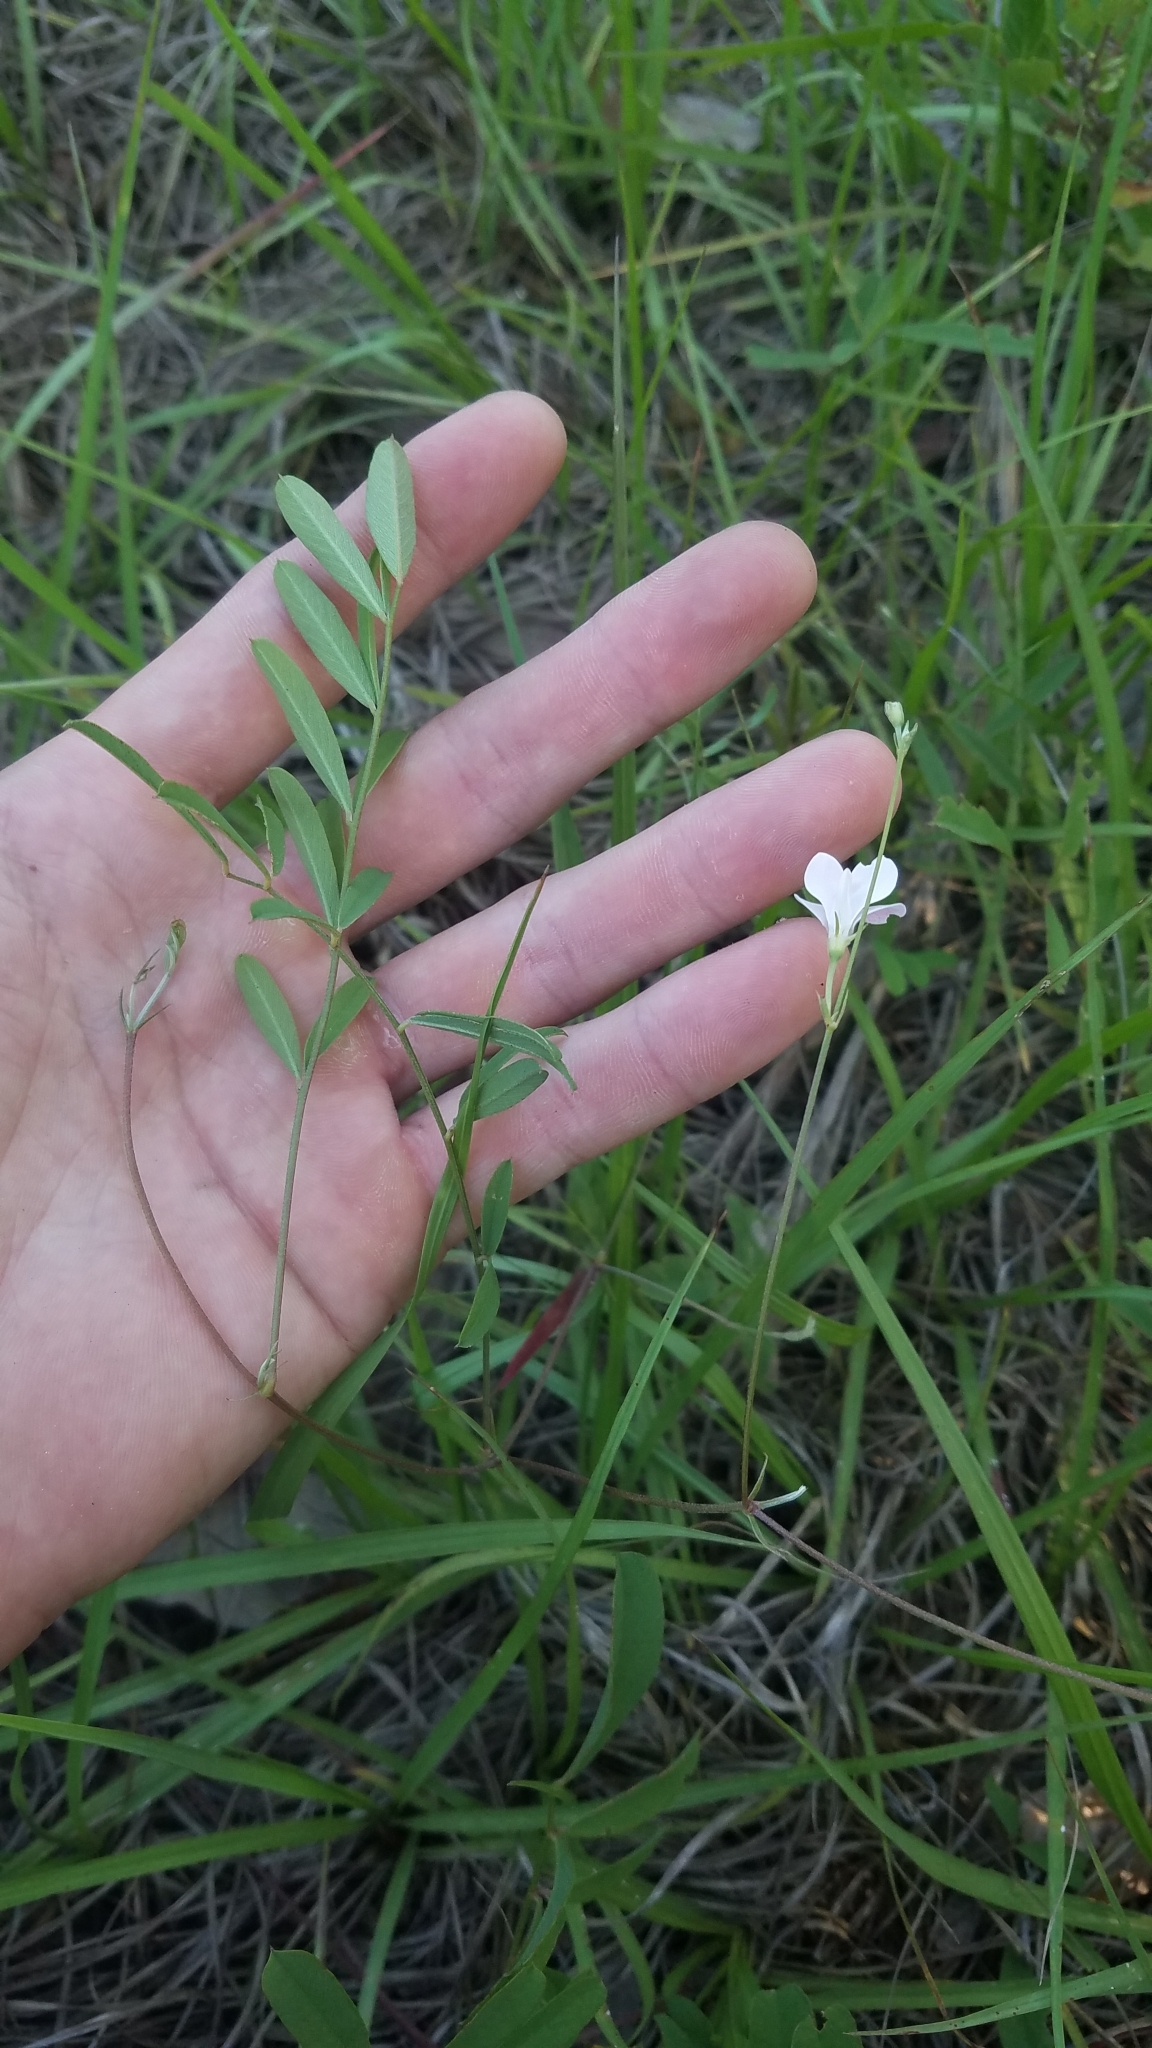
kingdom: Plantae
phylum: Tracheophyta
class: Magnoliopsida
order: Fabales
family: Fabaceae
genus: Tephrosia
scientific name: Tephrosia florida
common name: Florida hoary-pea
